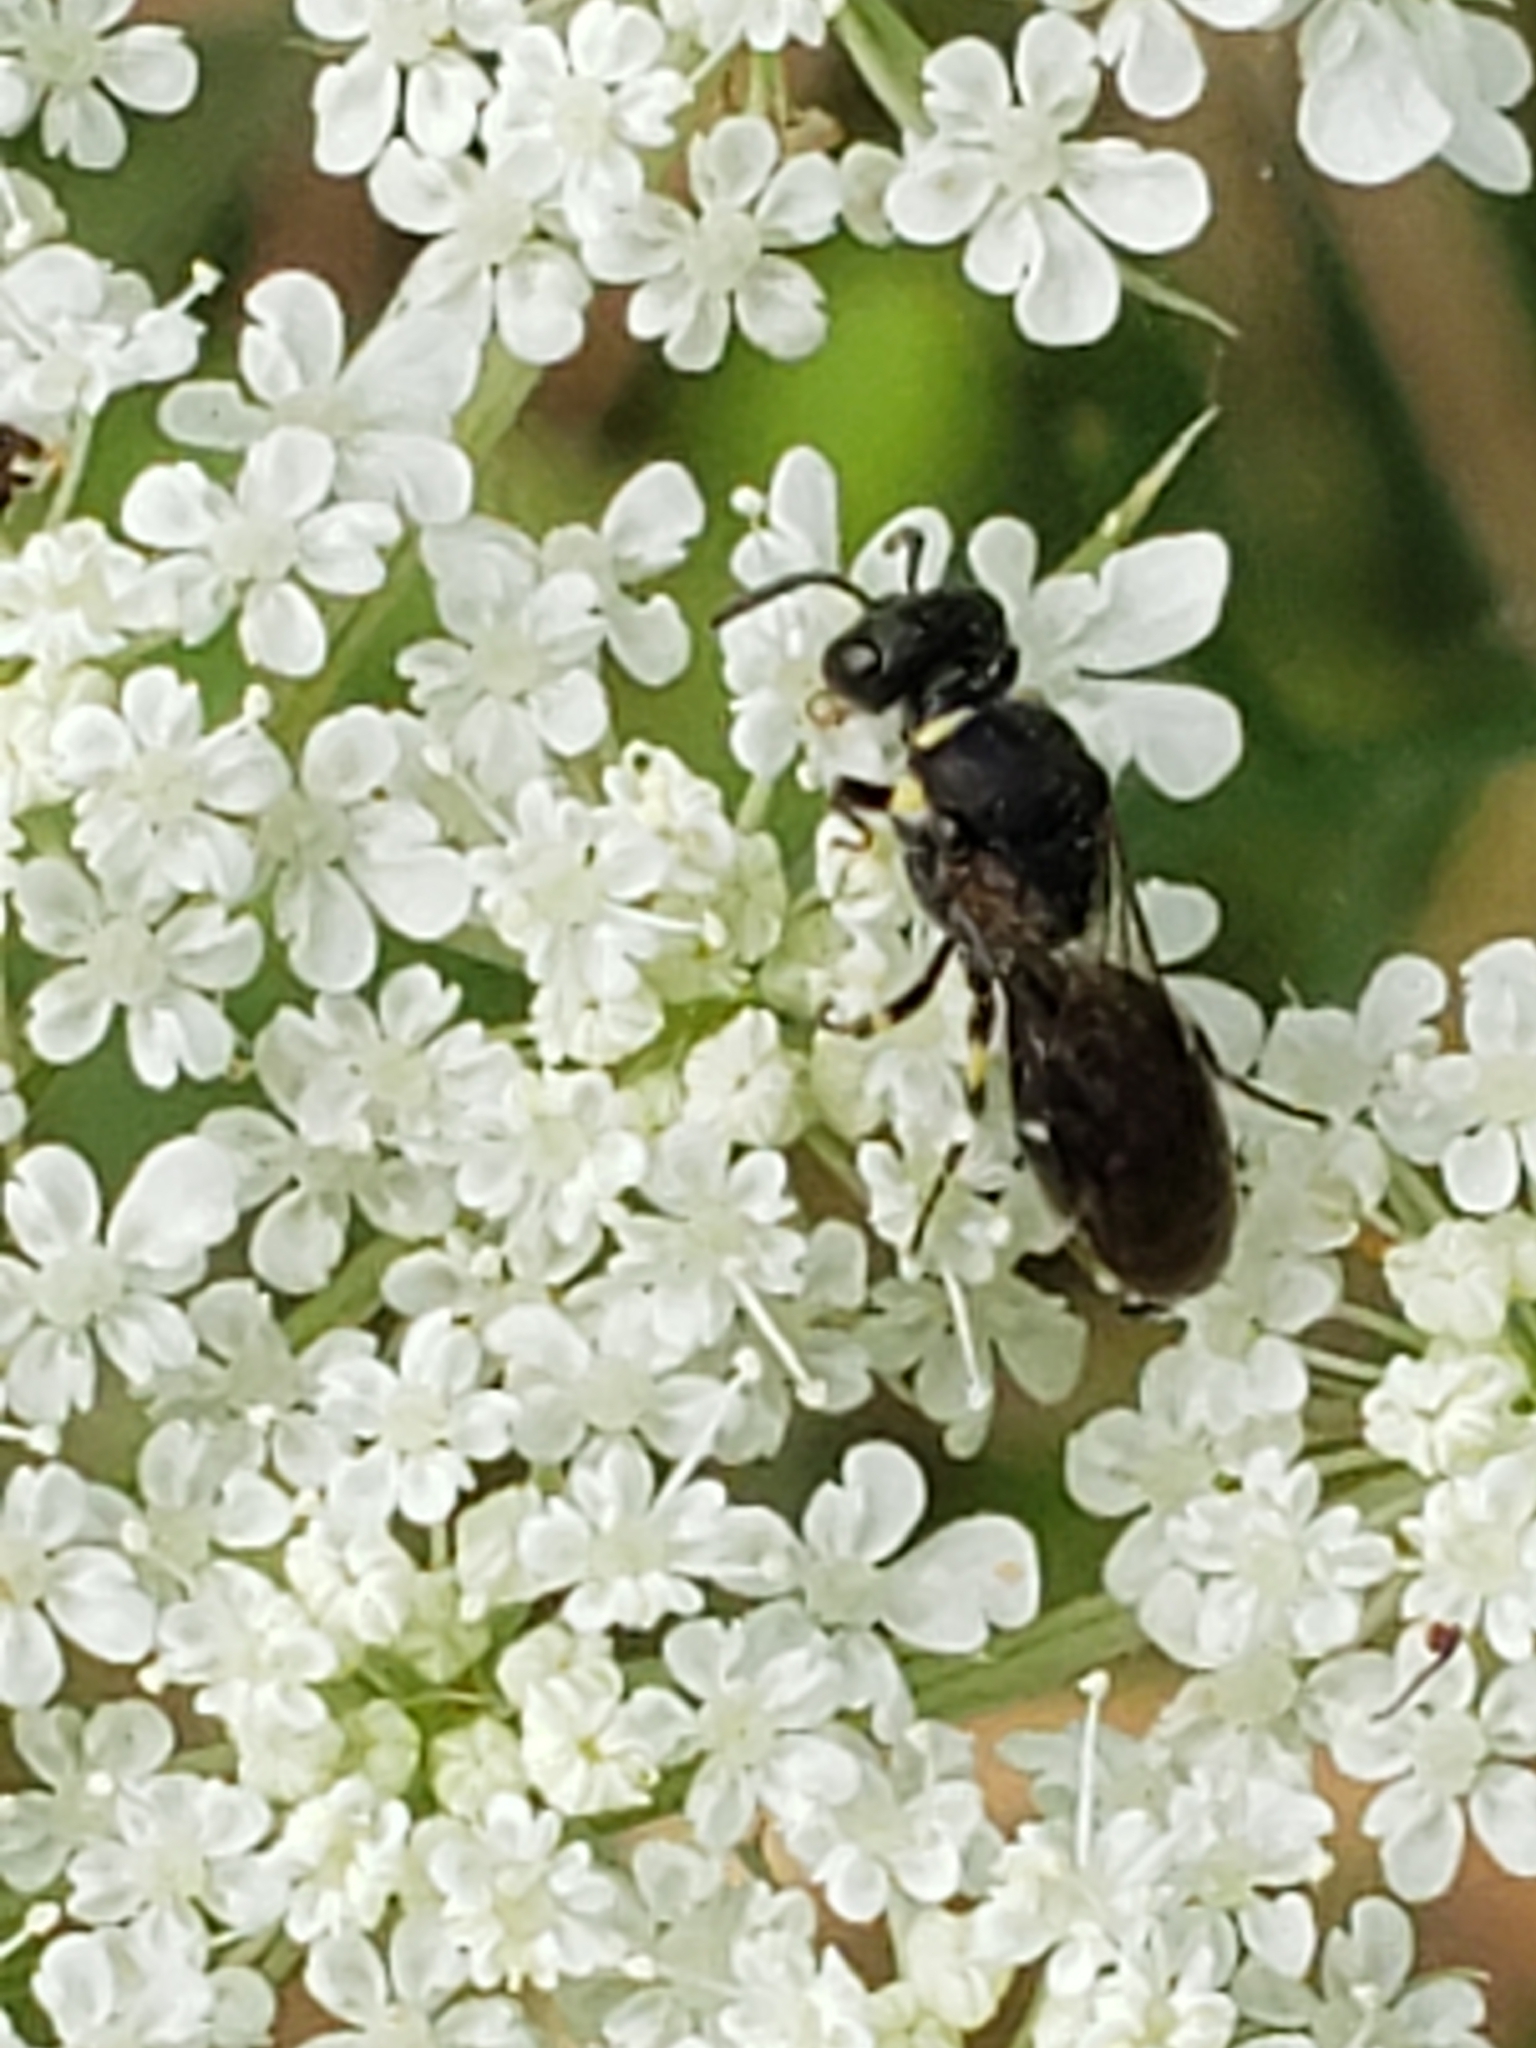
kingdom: Animalia
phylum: Arthropoda
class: Insecta
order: Hymenoptera
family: Colletidae
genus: Hylaeus
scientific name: Hylaeus modestus
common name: Yellow-faced bee
